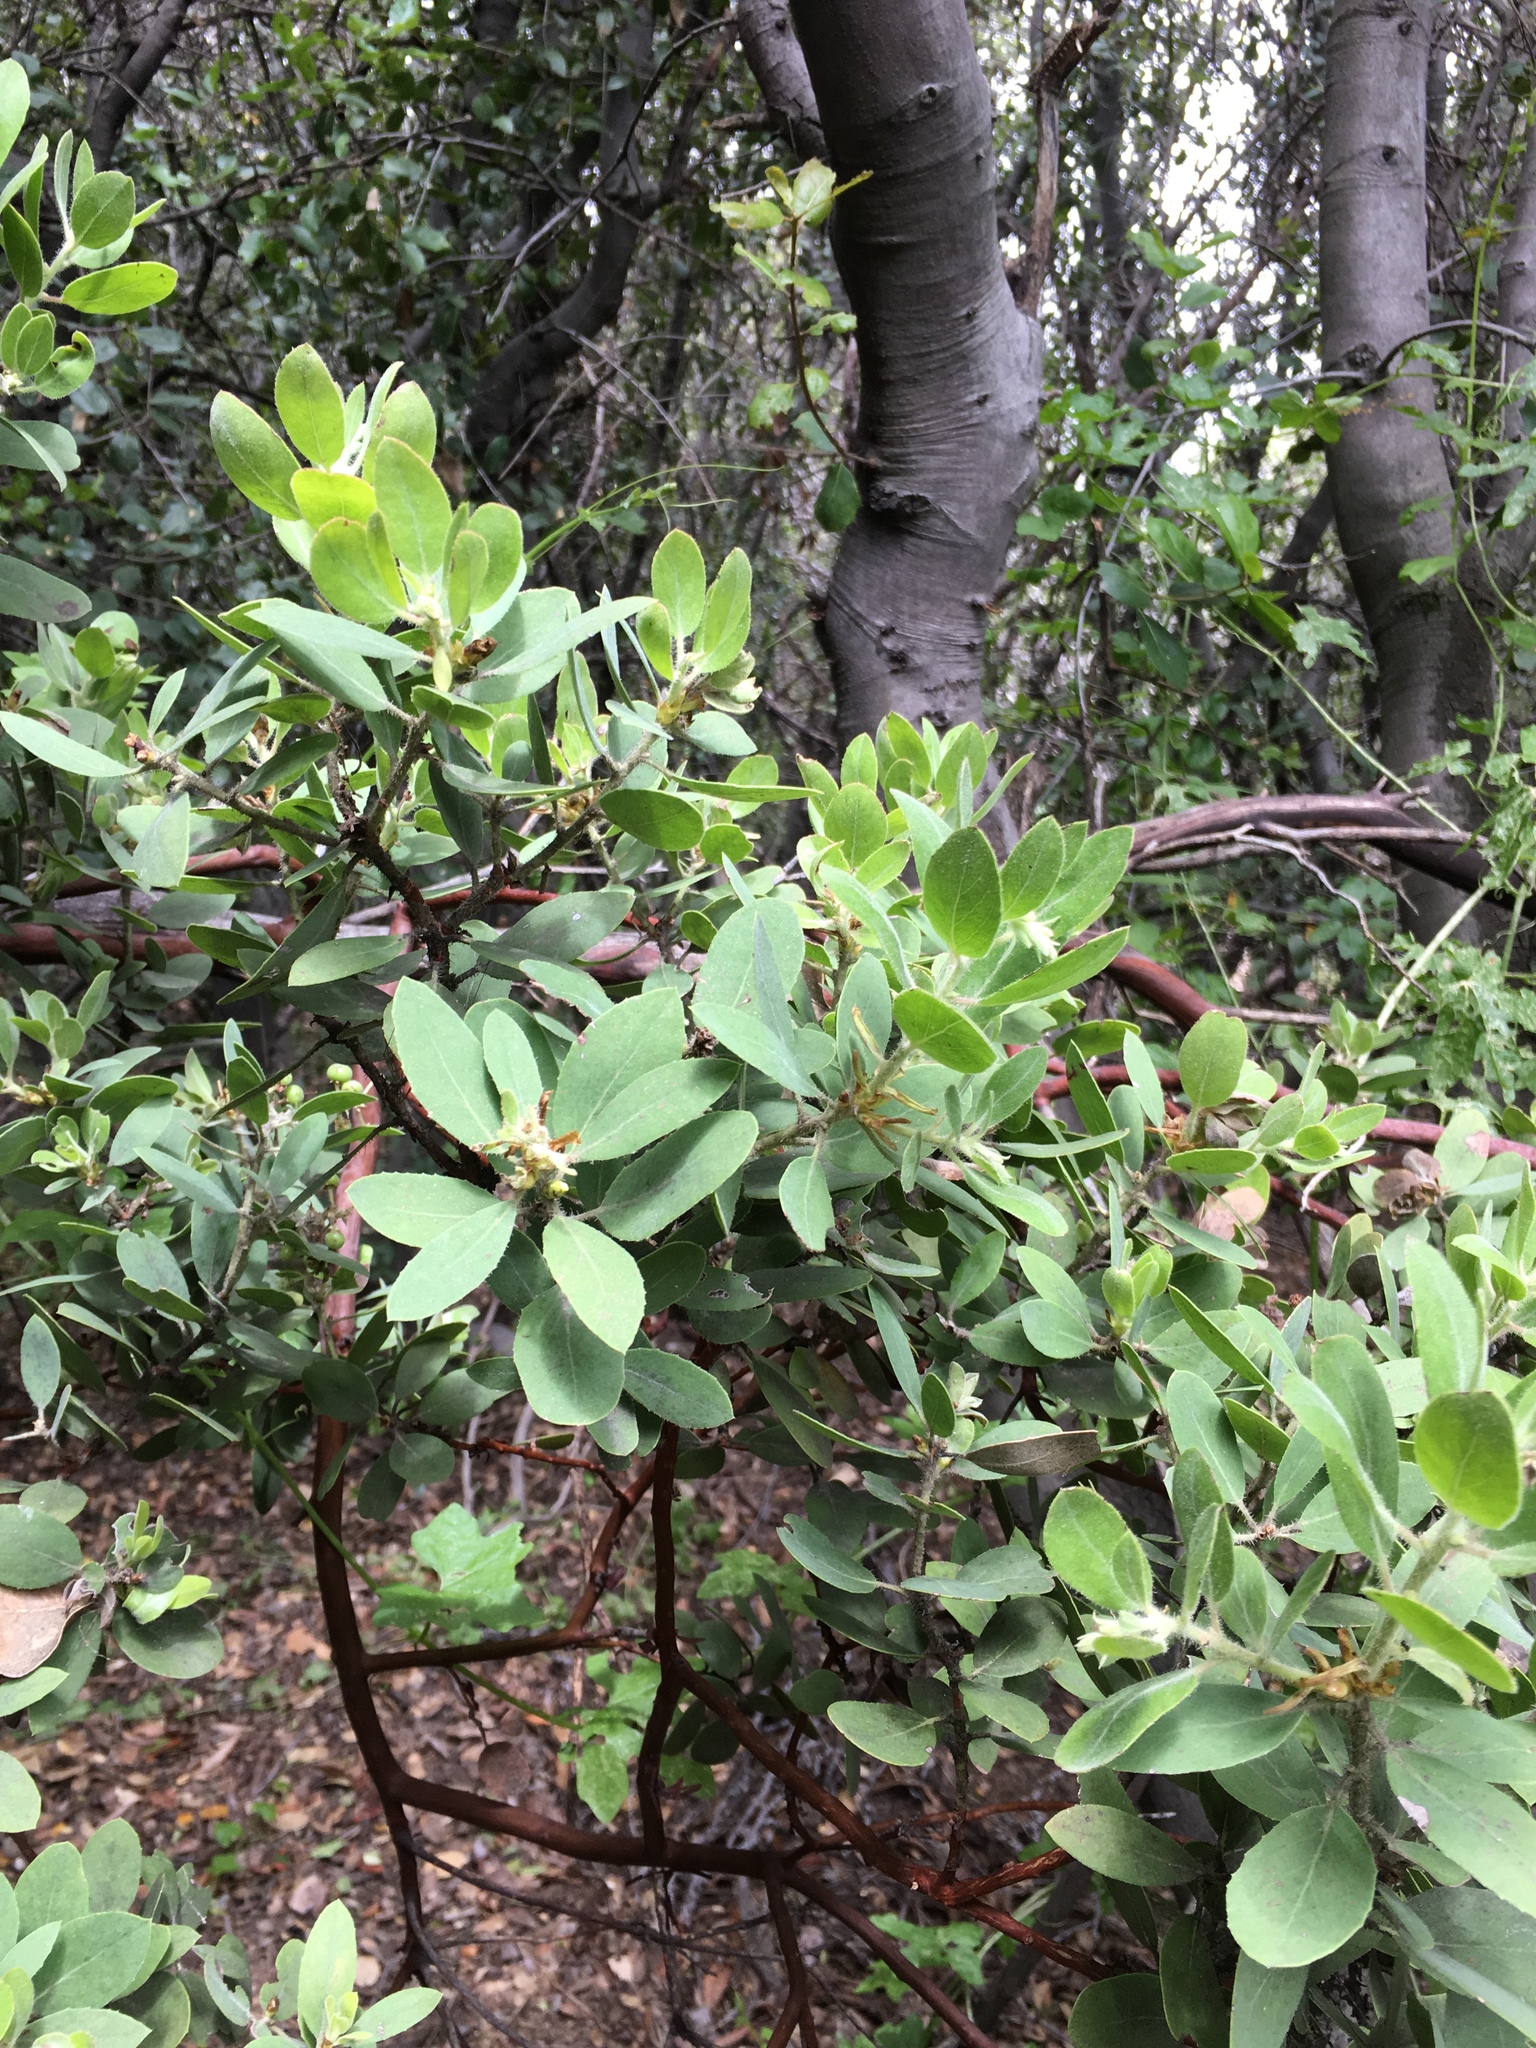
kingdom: Plantae
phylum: Tracheophyta
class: Magnoliopsida
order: Ericales
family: Ericaceae
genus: Arctostaphylos
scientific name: Arctostaphylos glandulosa
